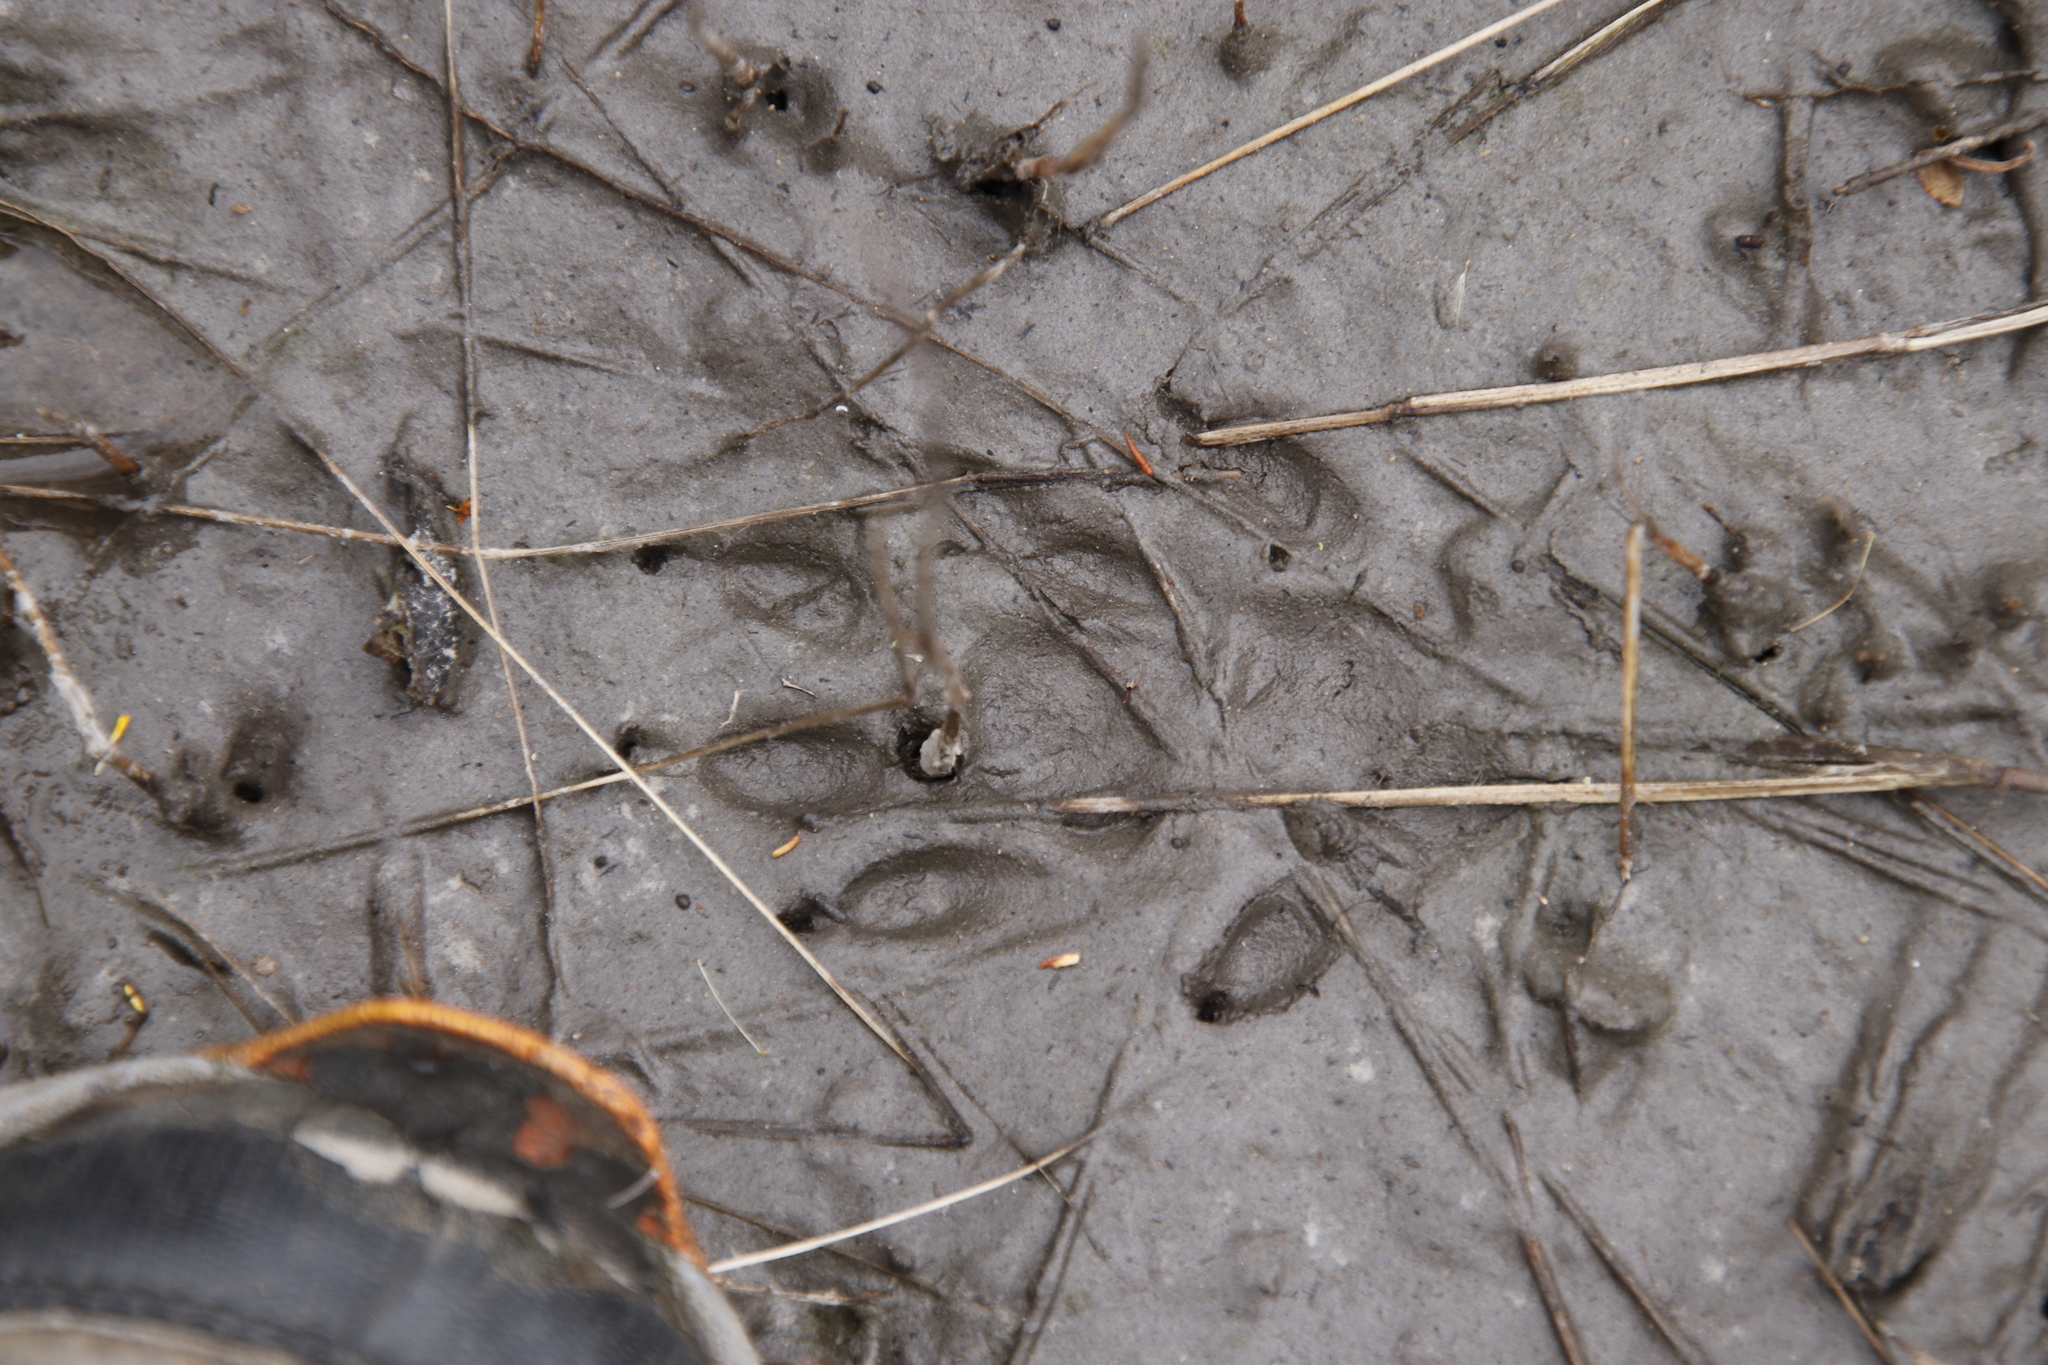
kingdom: Animalia
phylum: Chordata
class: Mammalia
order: Carnivora
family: Herpestidae
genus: Atilax
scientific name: Atilax paludinosus
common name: Marsh mongoose
